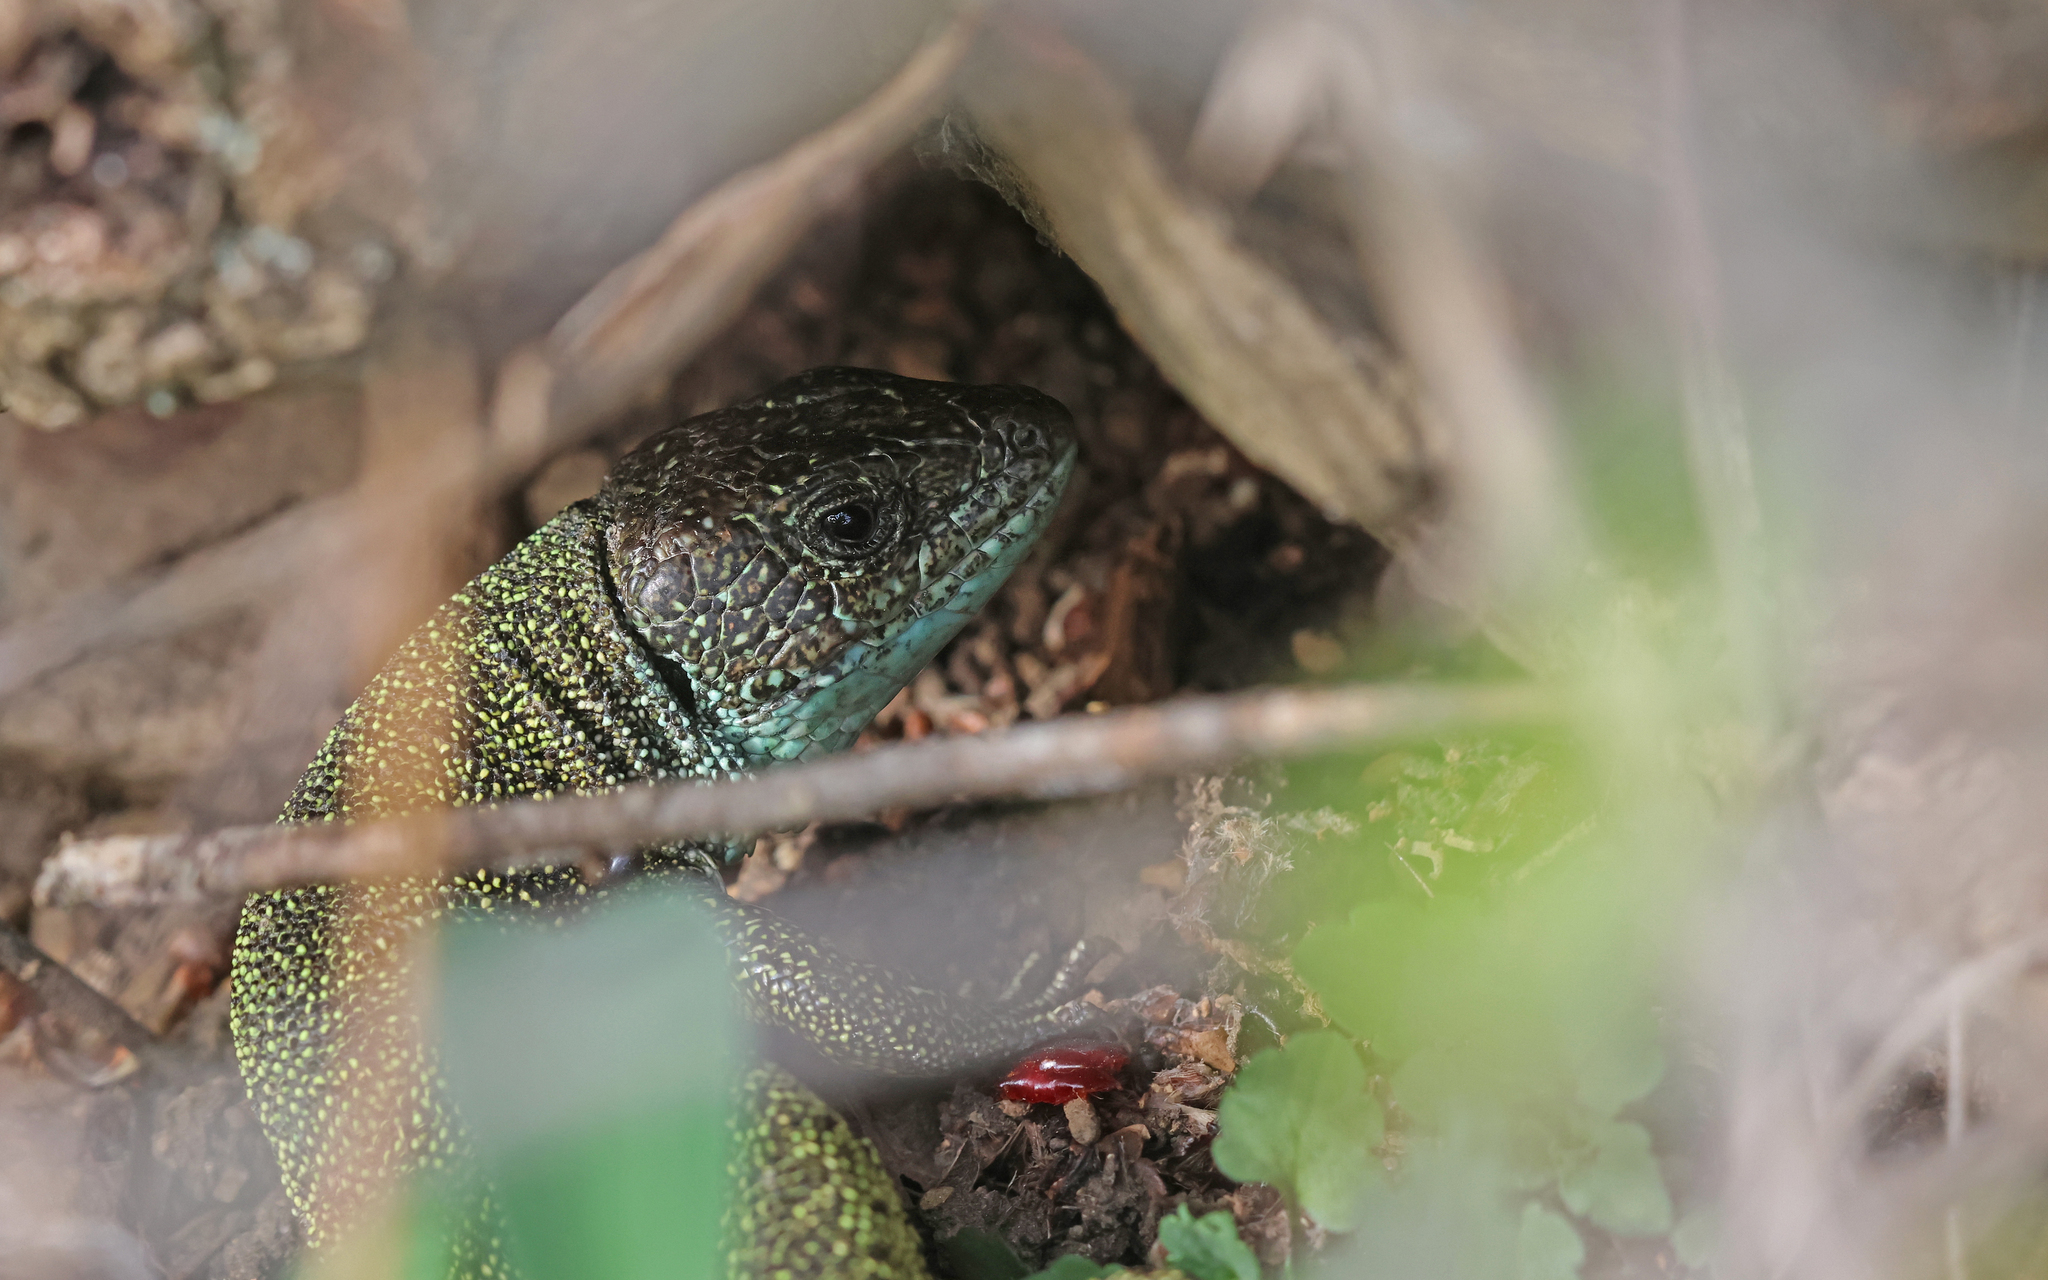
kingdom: Animalia
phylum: Chordata
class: Squamata
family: Lacertidae
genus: Lacerta
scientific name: Lacerta viridis
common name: European green lizard
